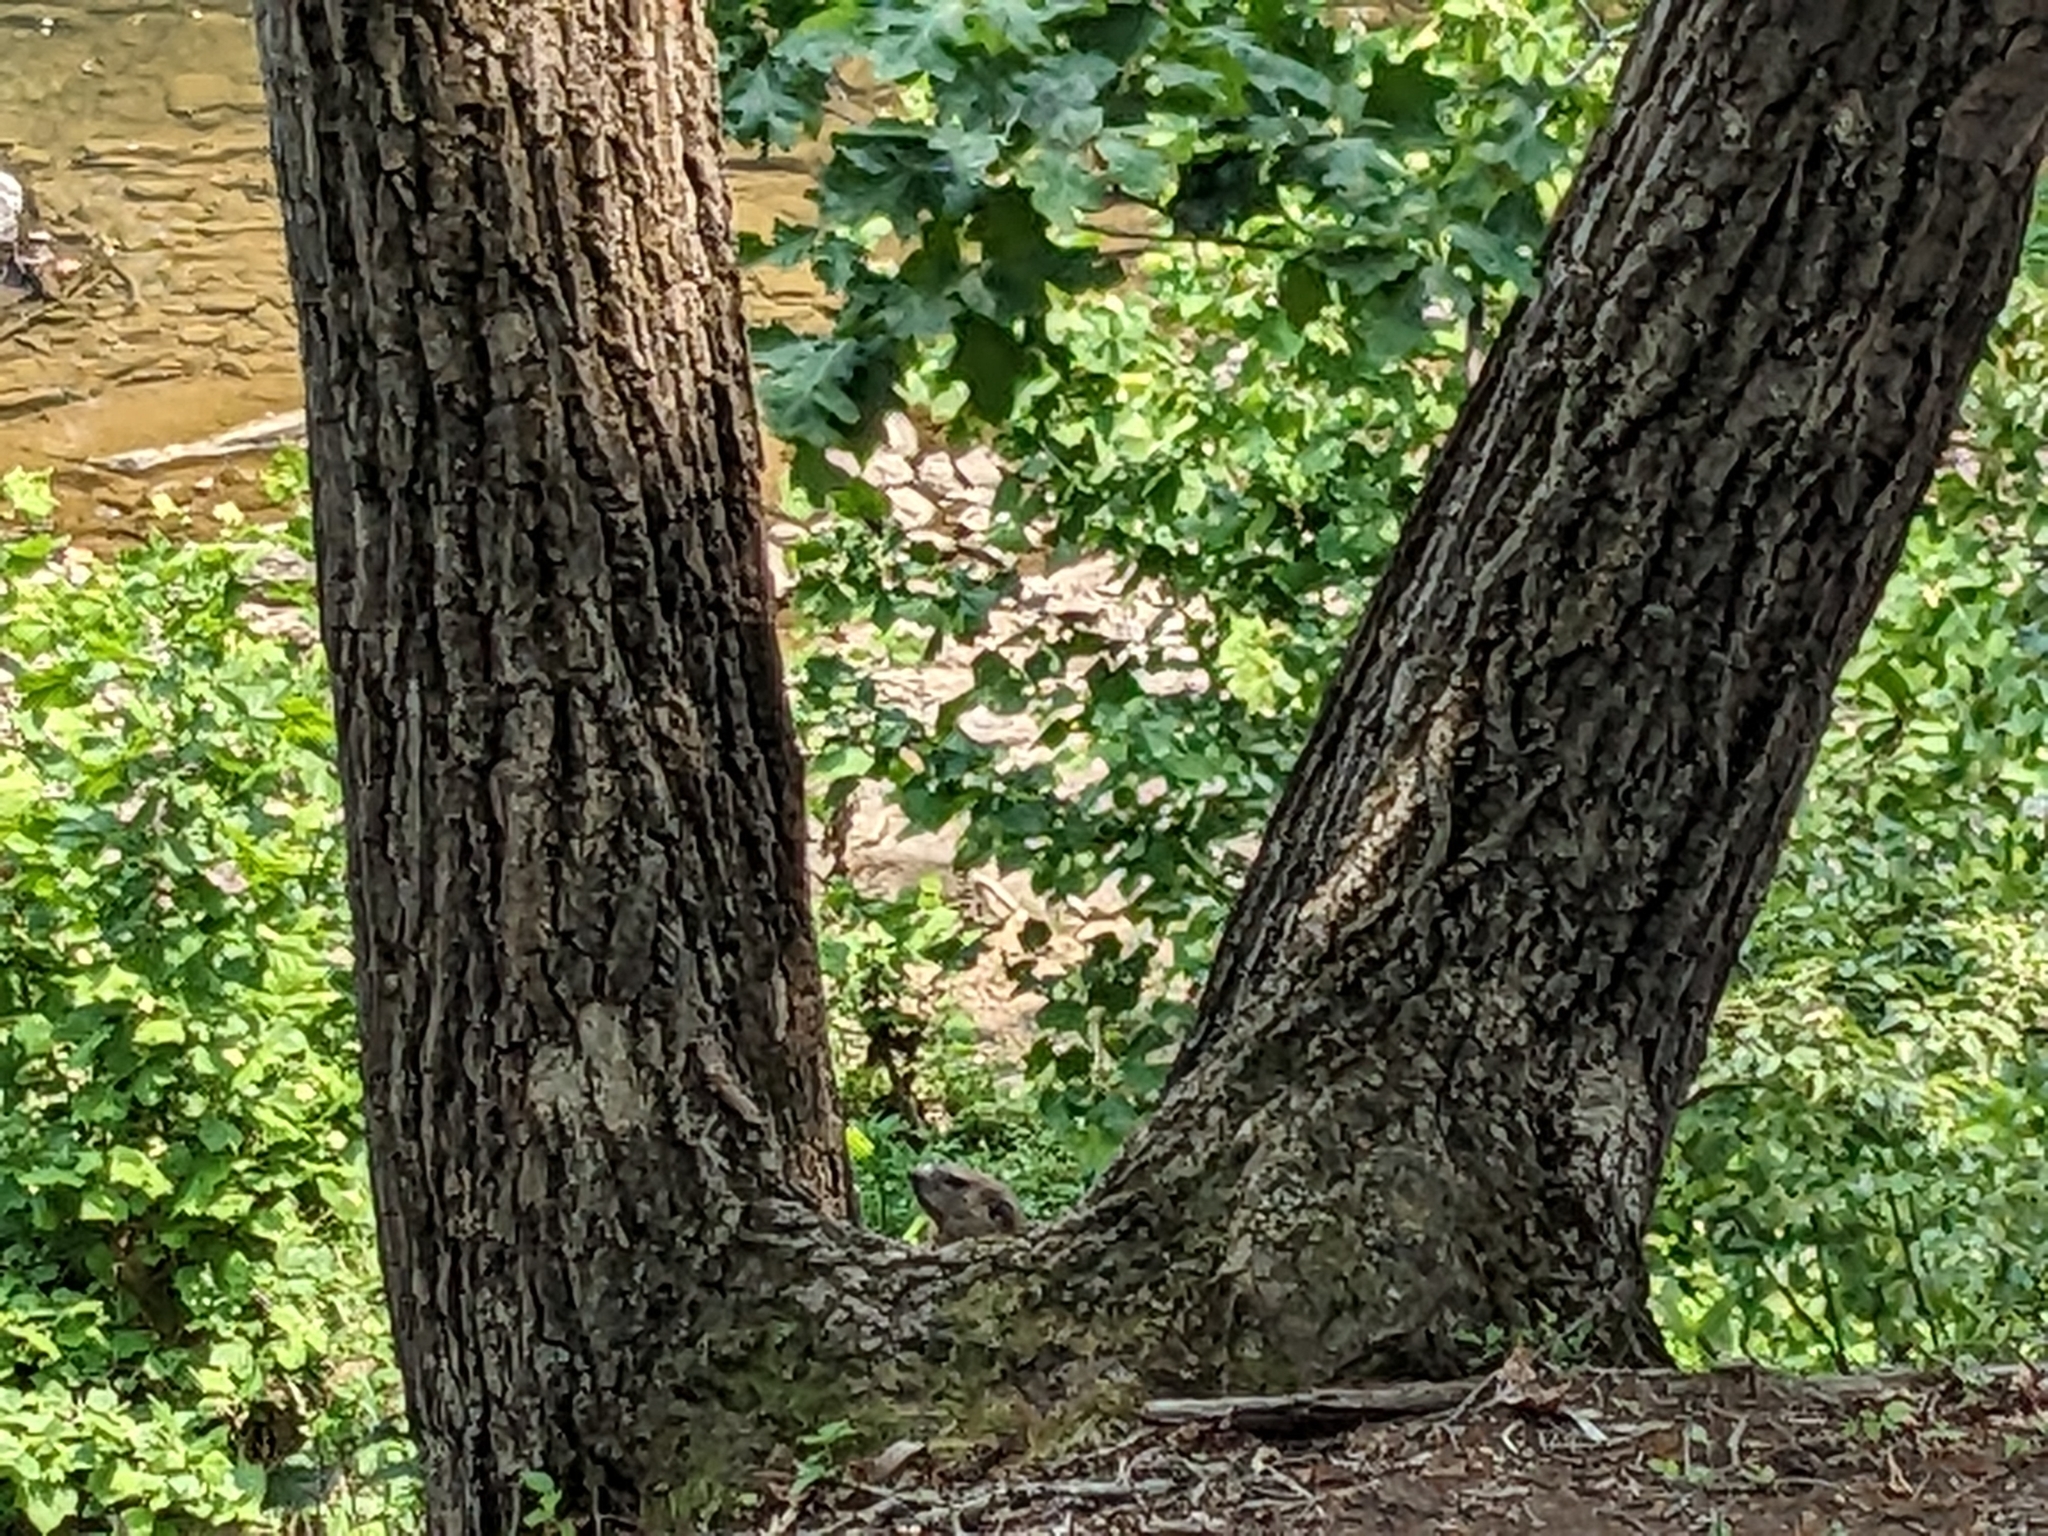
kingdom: Animalia
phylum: Chordata
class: Mammalia
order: Rodentia
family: Sciuridae
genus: Marmota
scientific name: Marmota monax
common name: Groundhog
